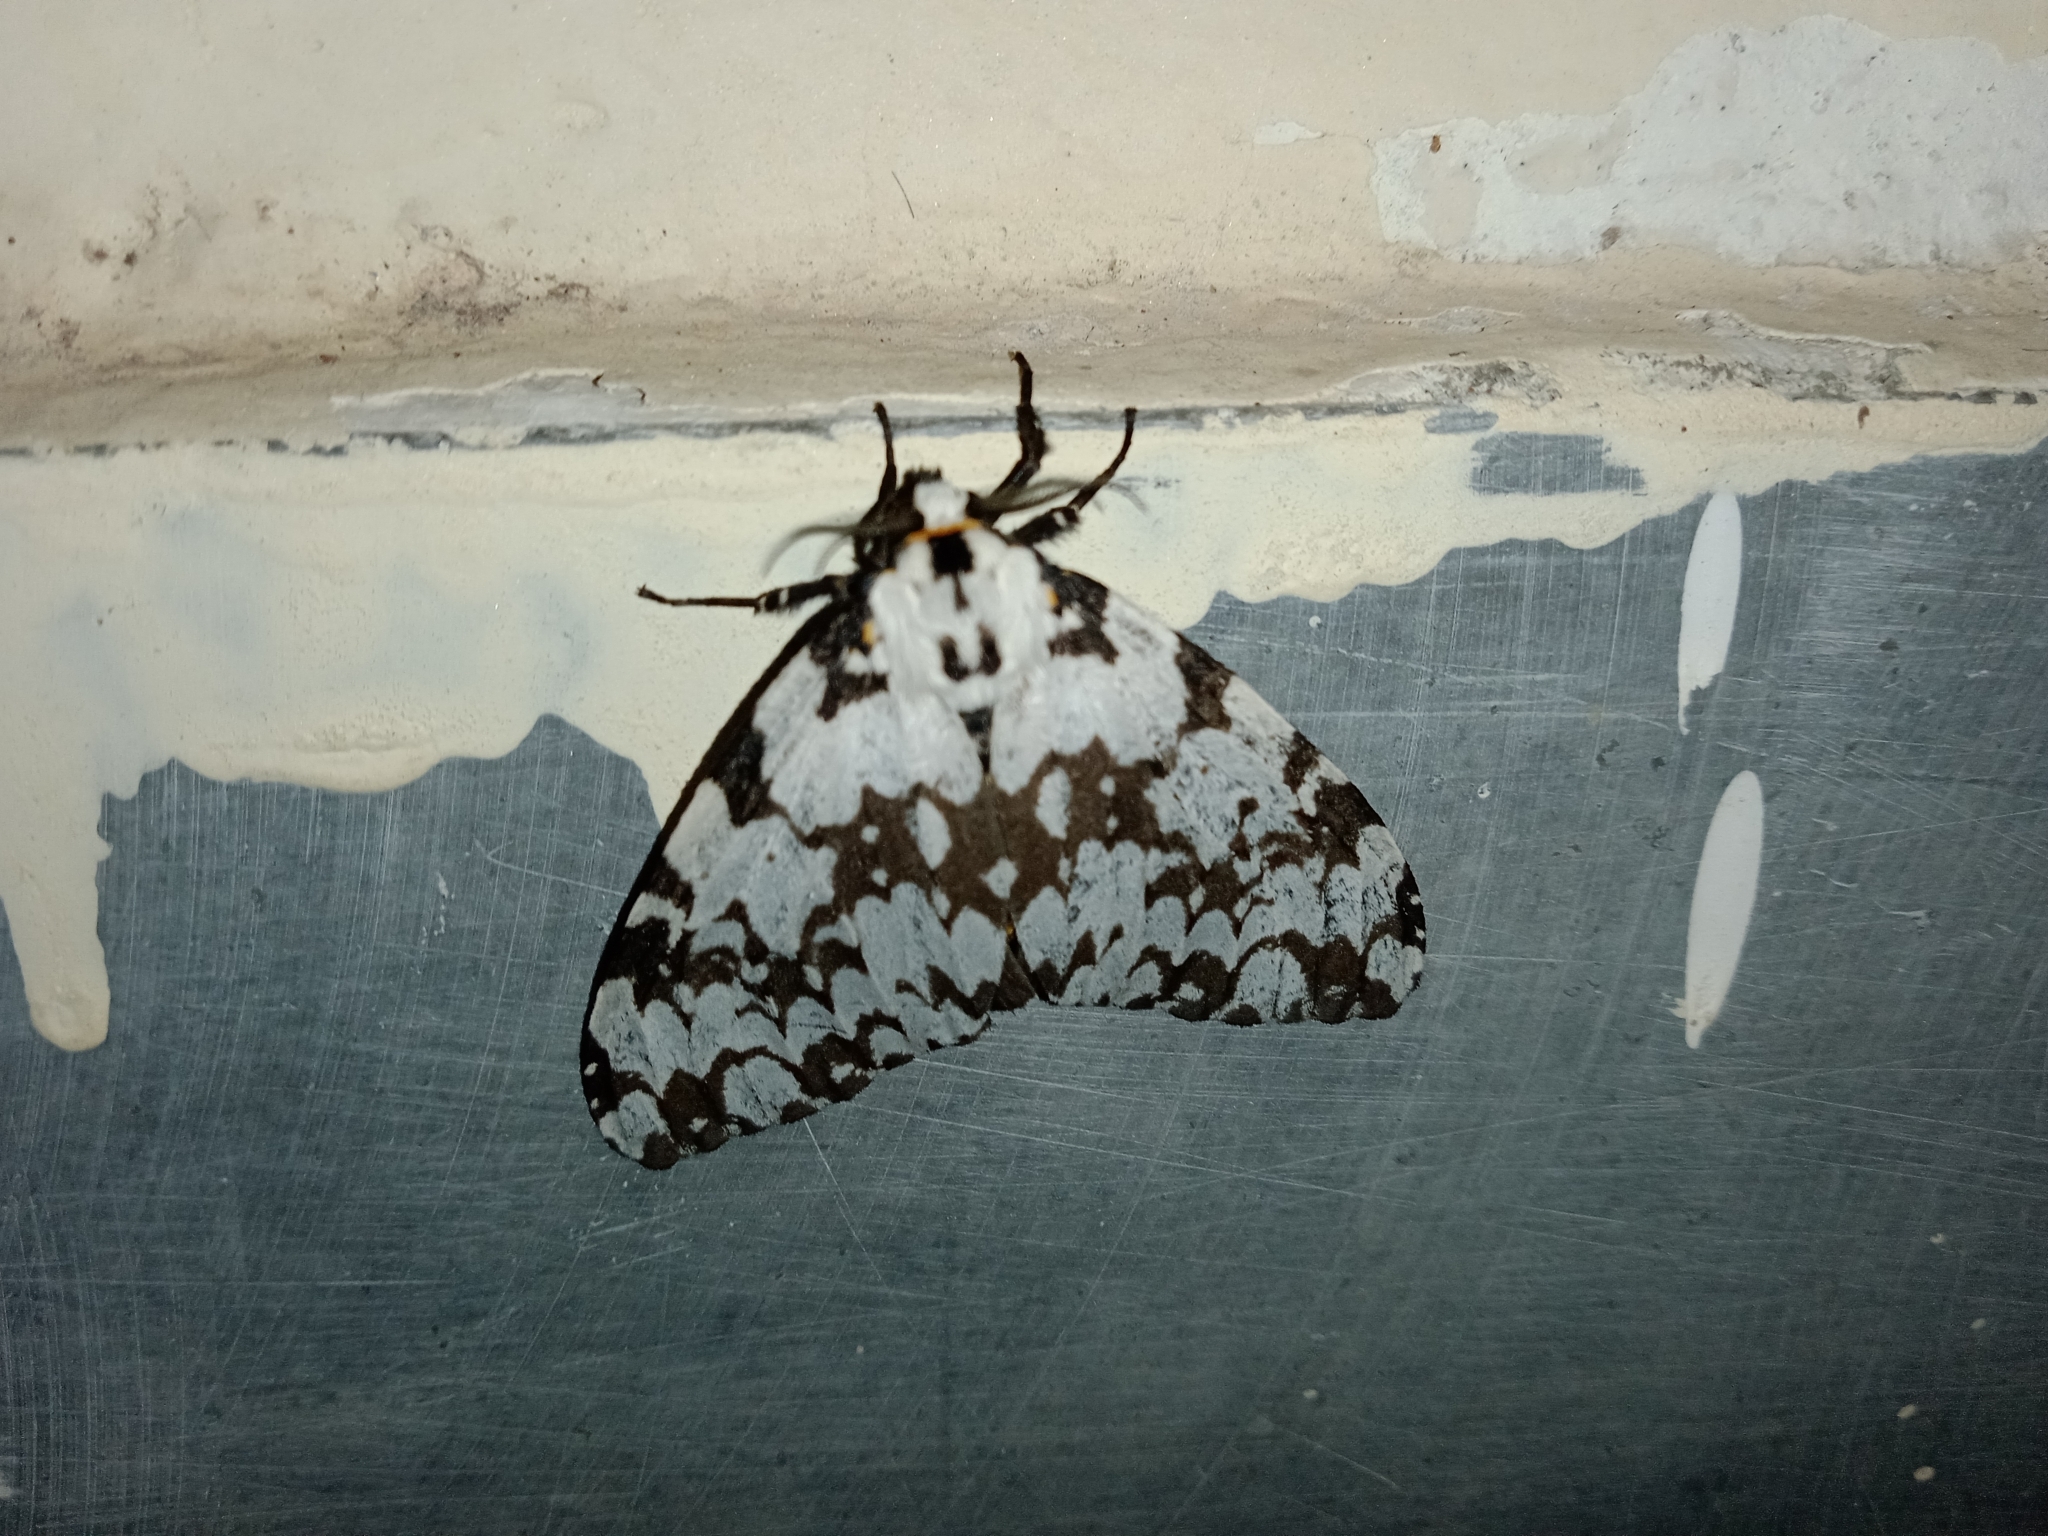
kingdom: Animalia
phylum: Arthropoda
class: Insecta
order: Lepidoptera
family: Erebidae
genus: Lymantria
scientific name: Lymantria marginata
